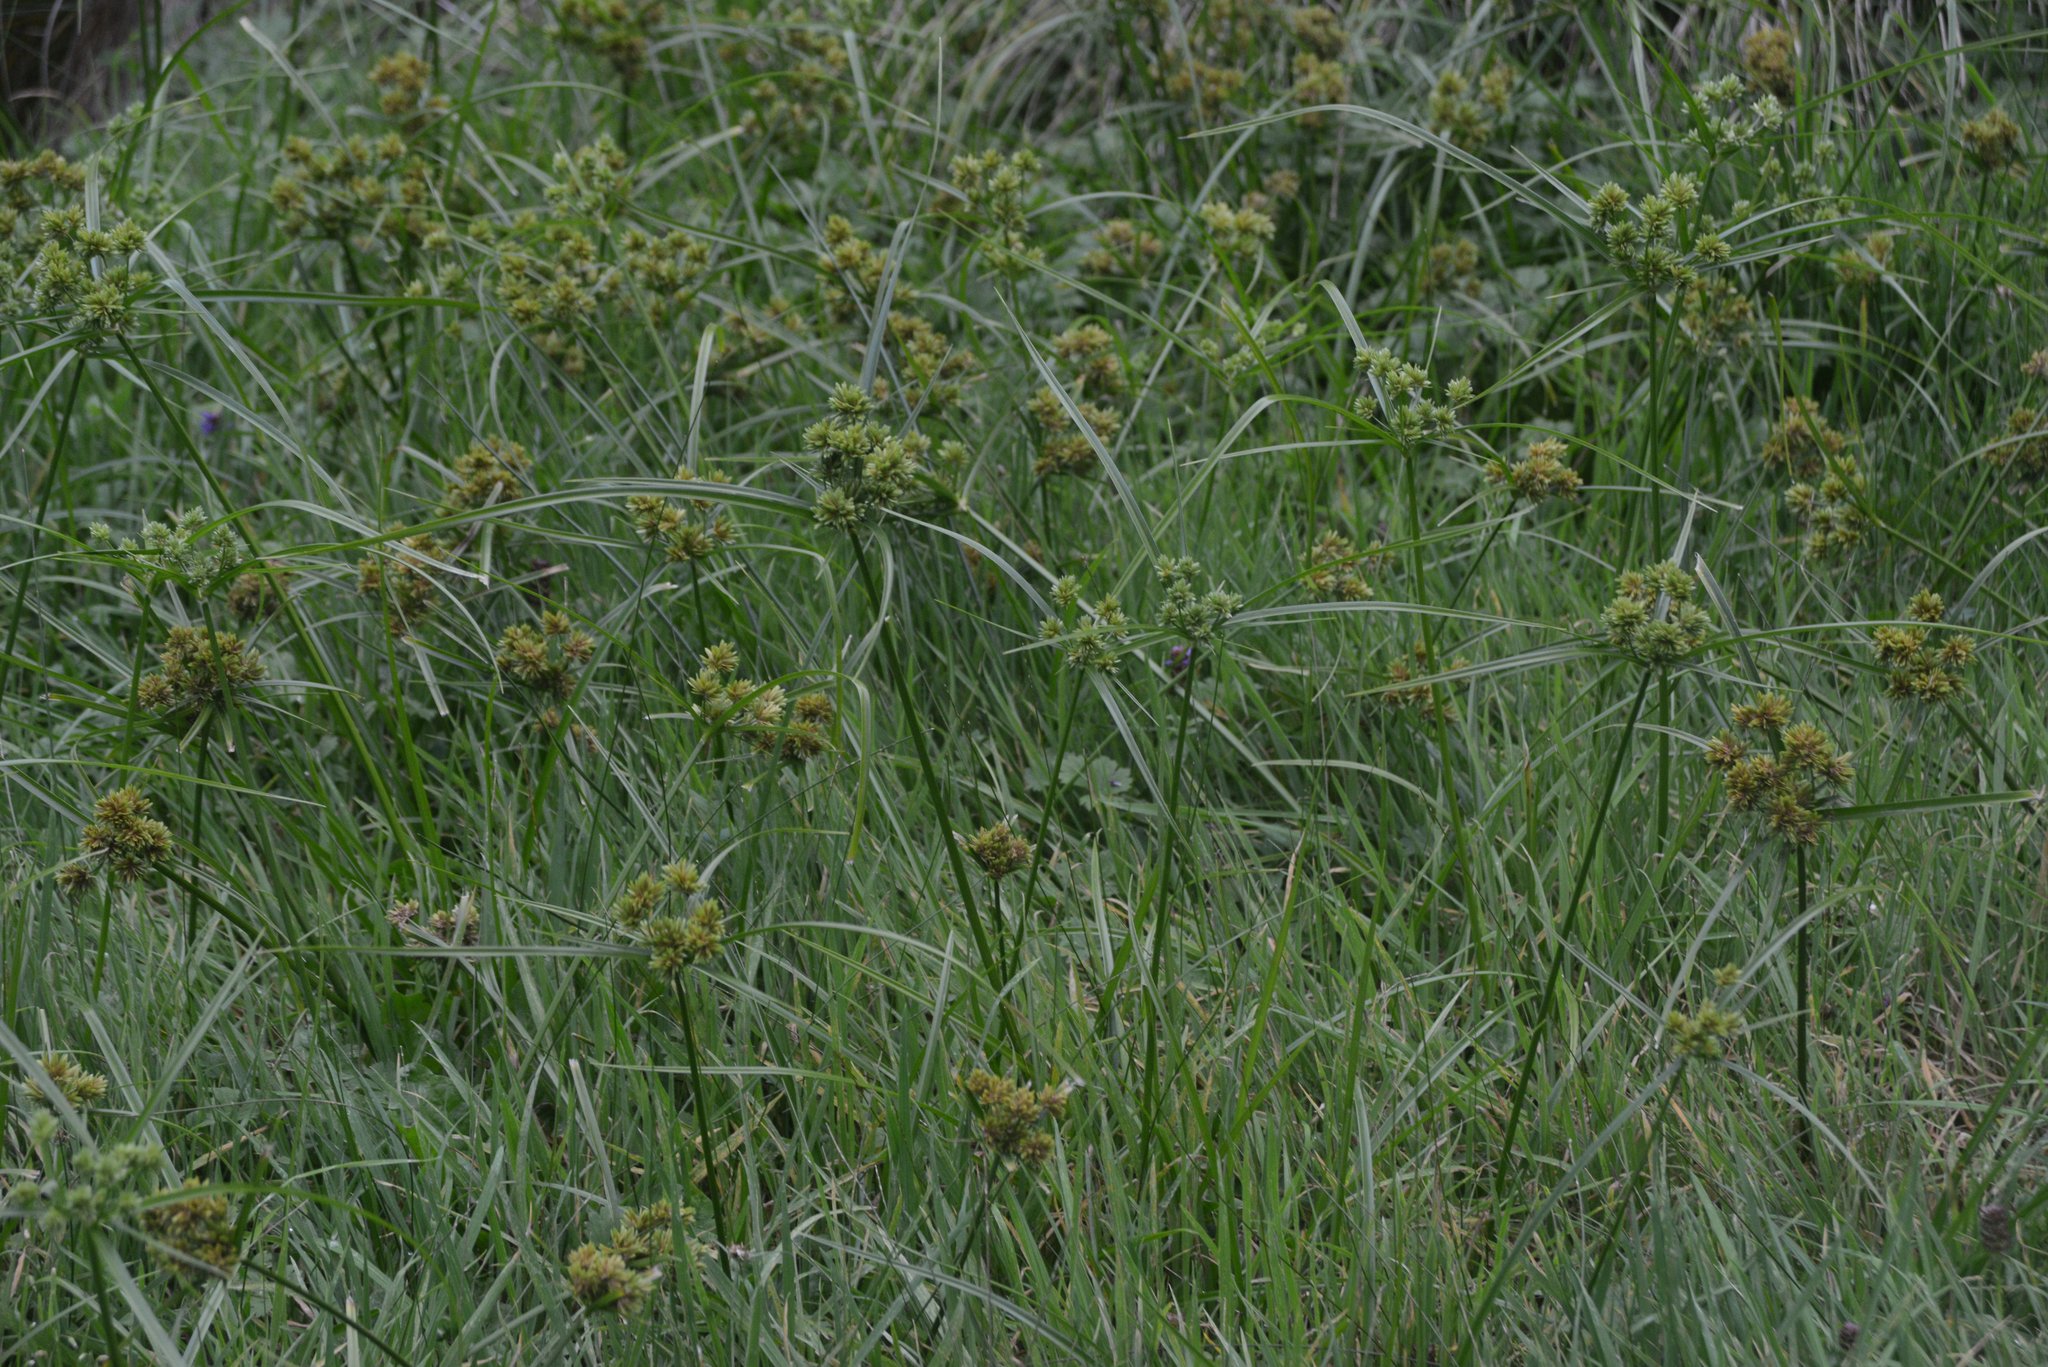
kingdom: Plantae
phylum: Tracheophyta
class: Liliopsida
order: Poales
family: Cyperaceae
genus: Cyperus
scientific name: Cyperus eragrostis
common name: Tall flatsedge
